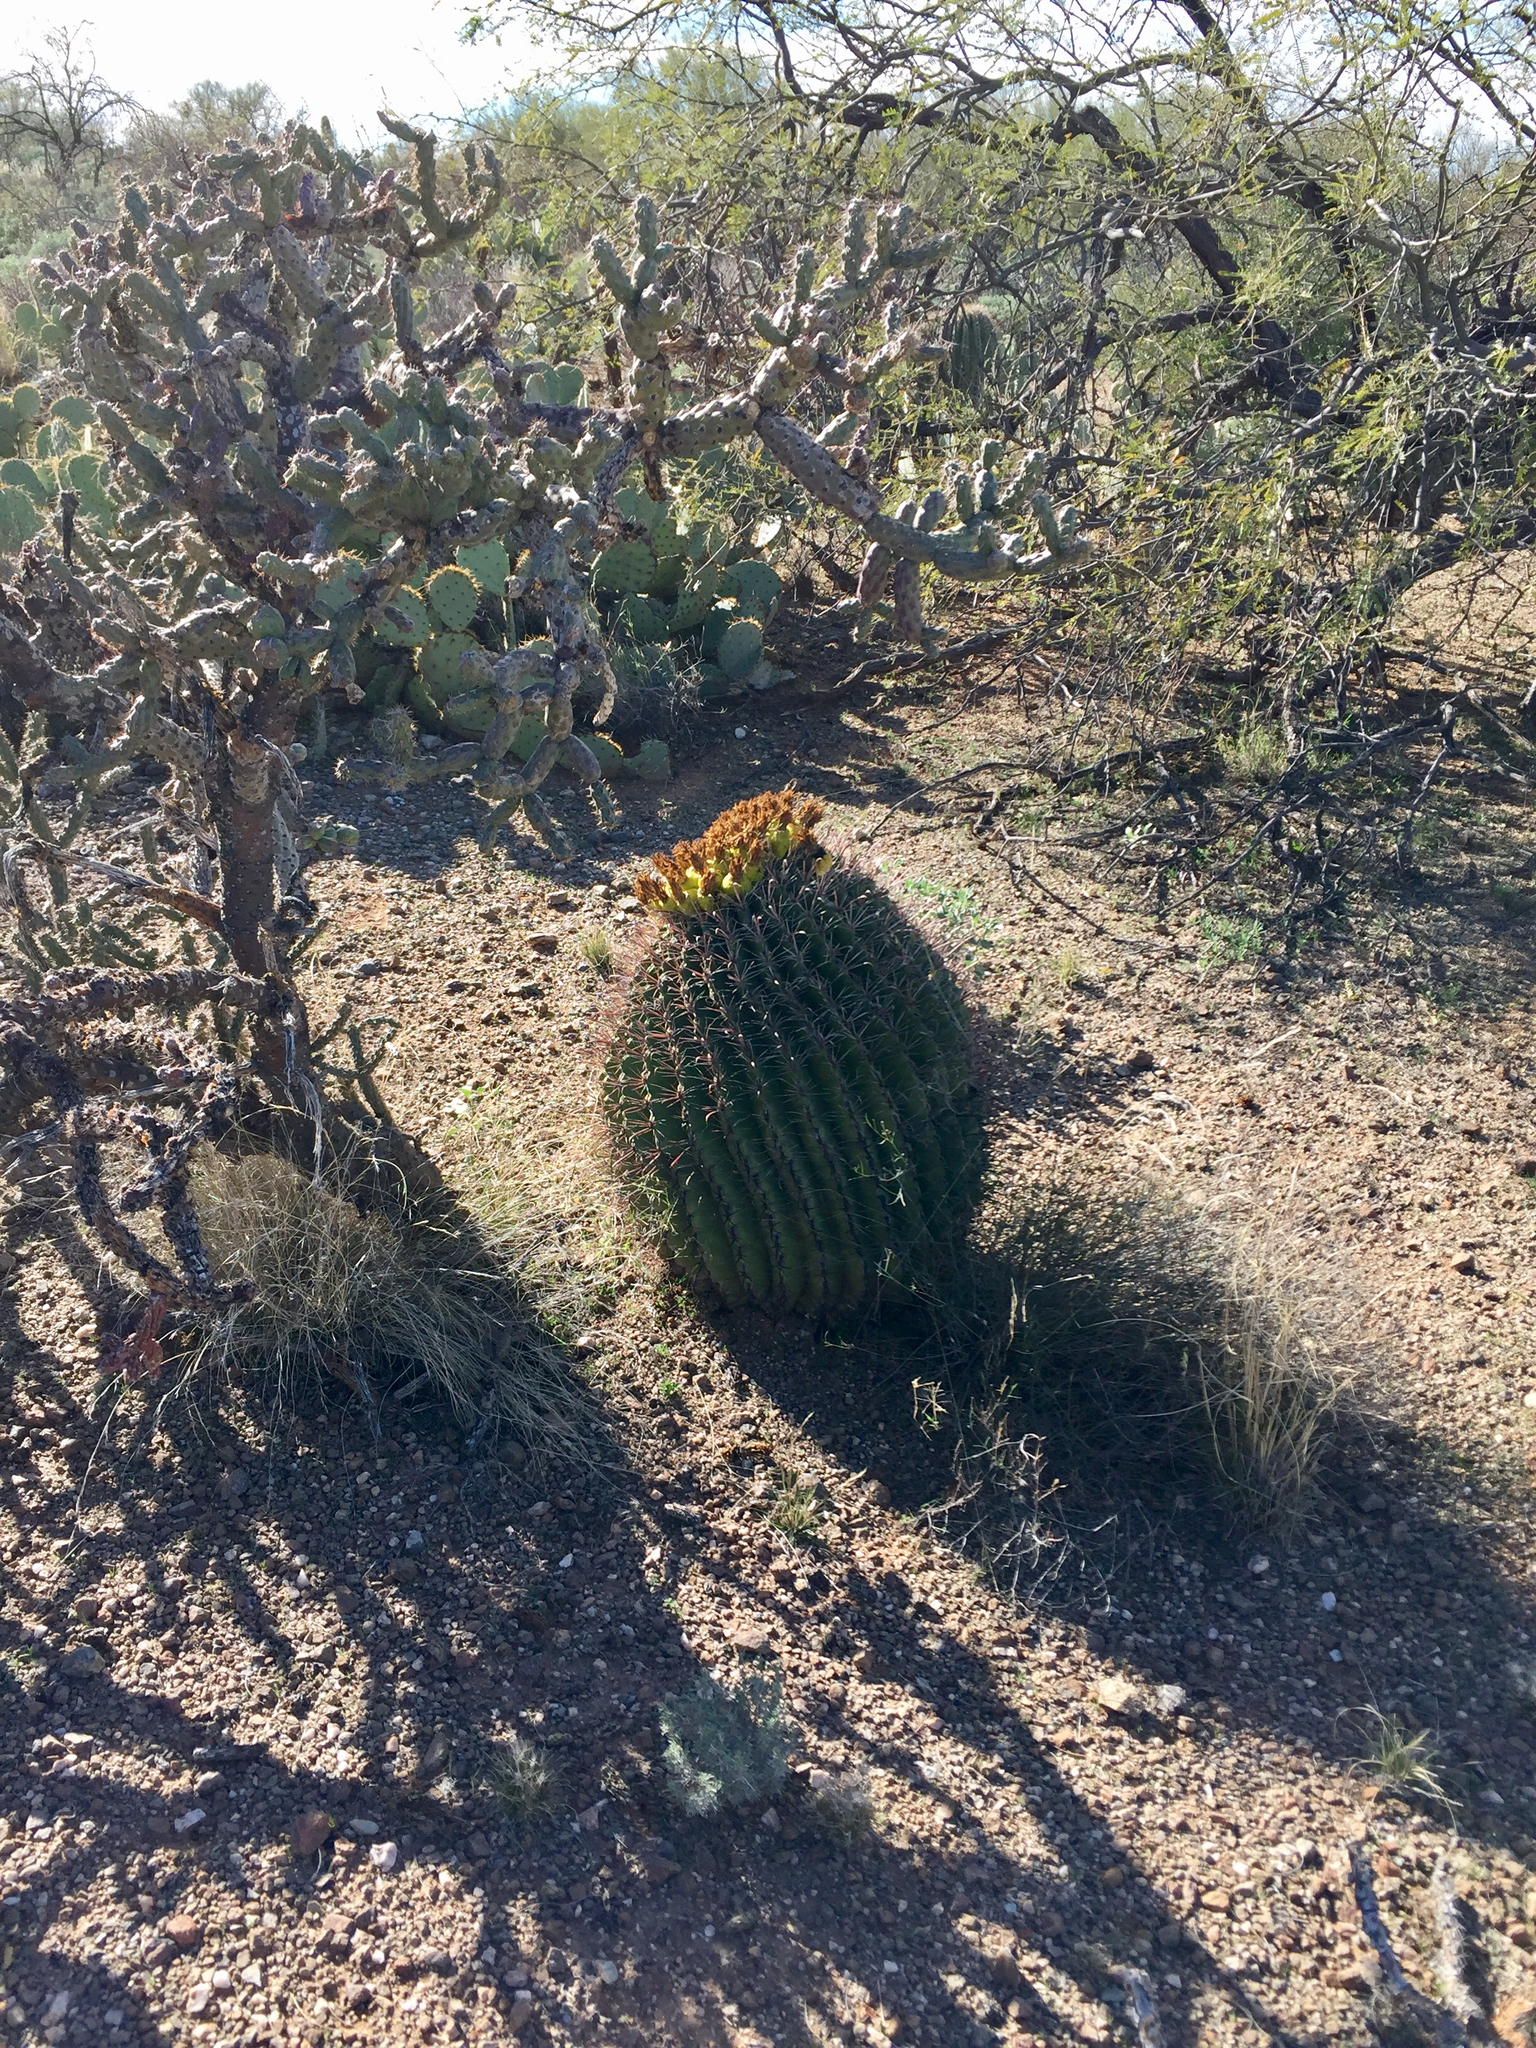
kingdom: Plantae
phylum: Tracheophyta
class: Magnoliopsida
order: Caryophyllales
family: Cactaceae
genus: Ferocactus
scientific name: Ferocactus wislizeni
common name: Candy barrel cactus
